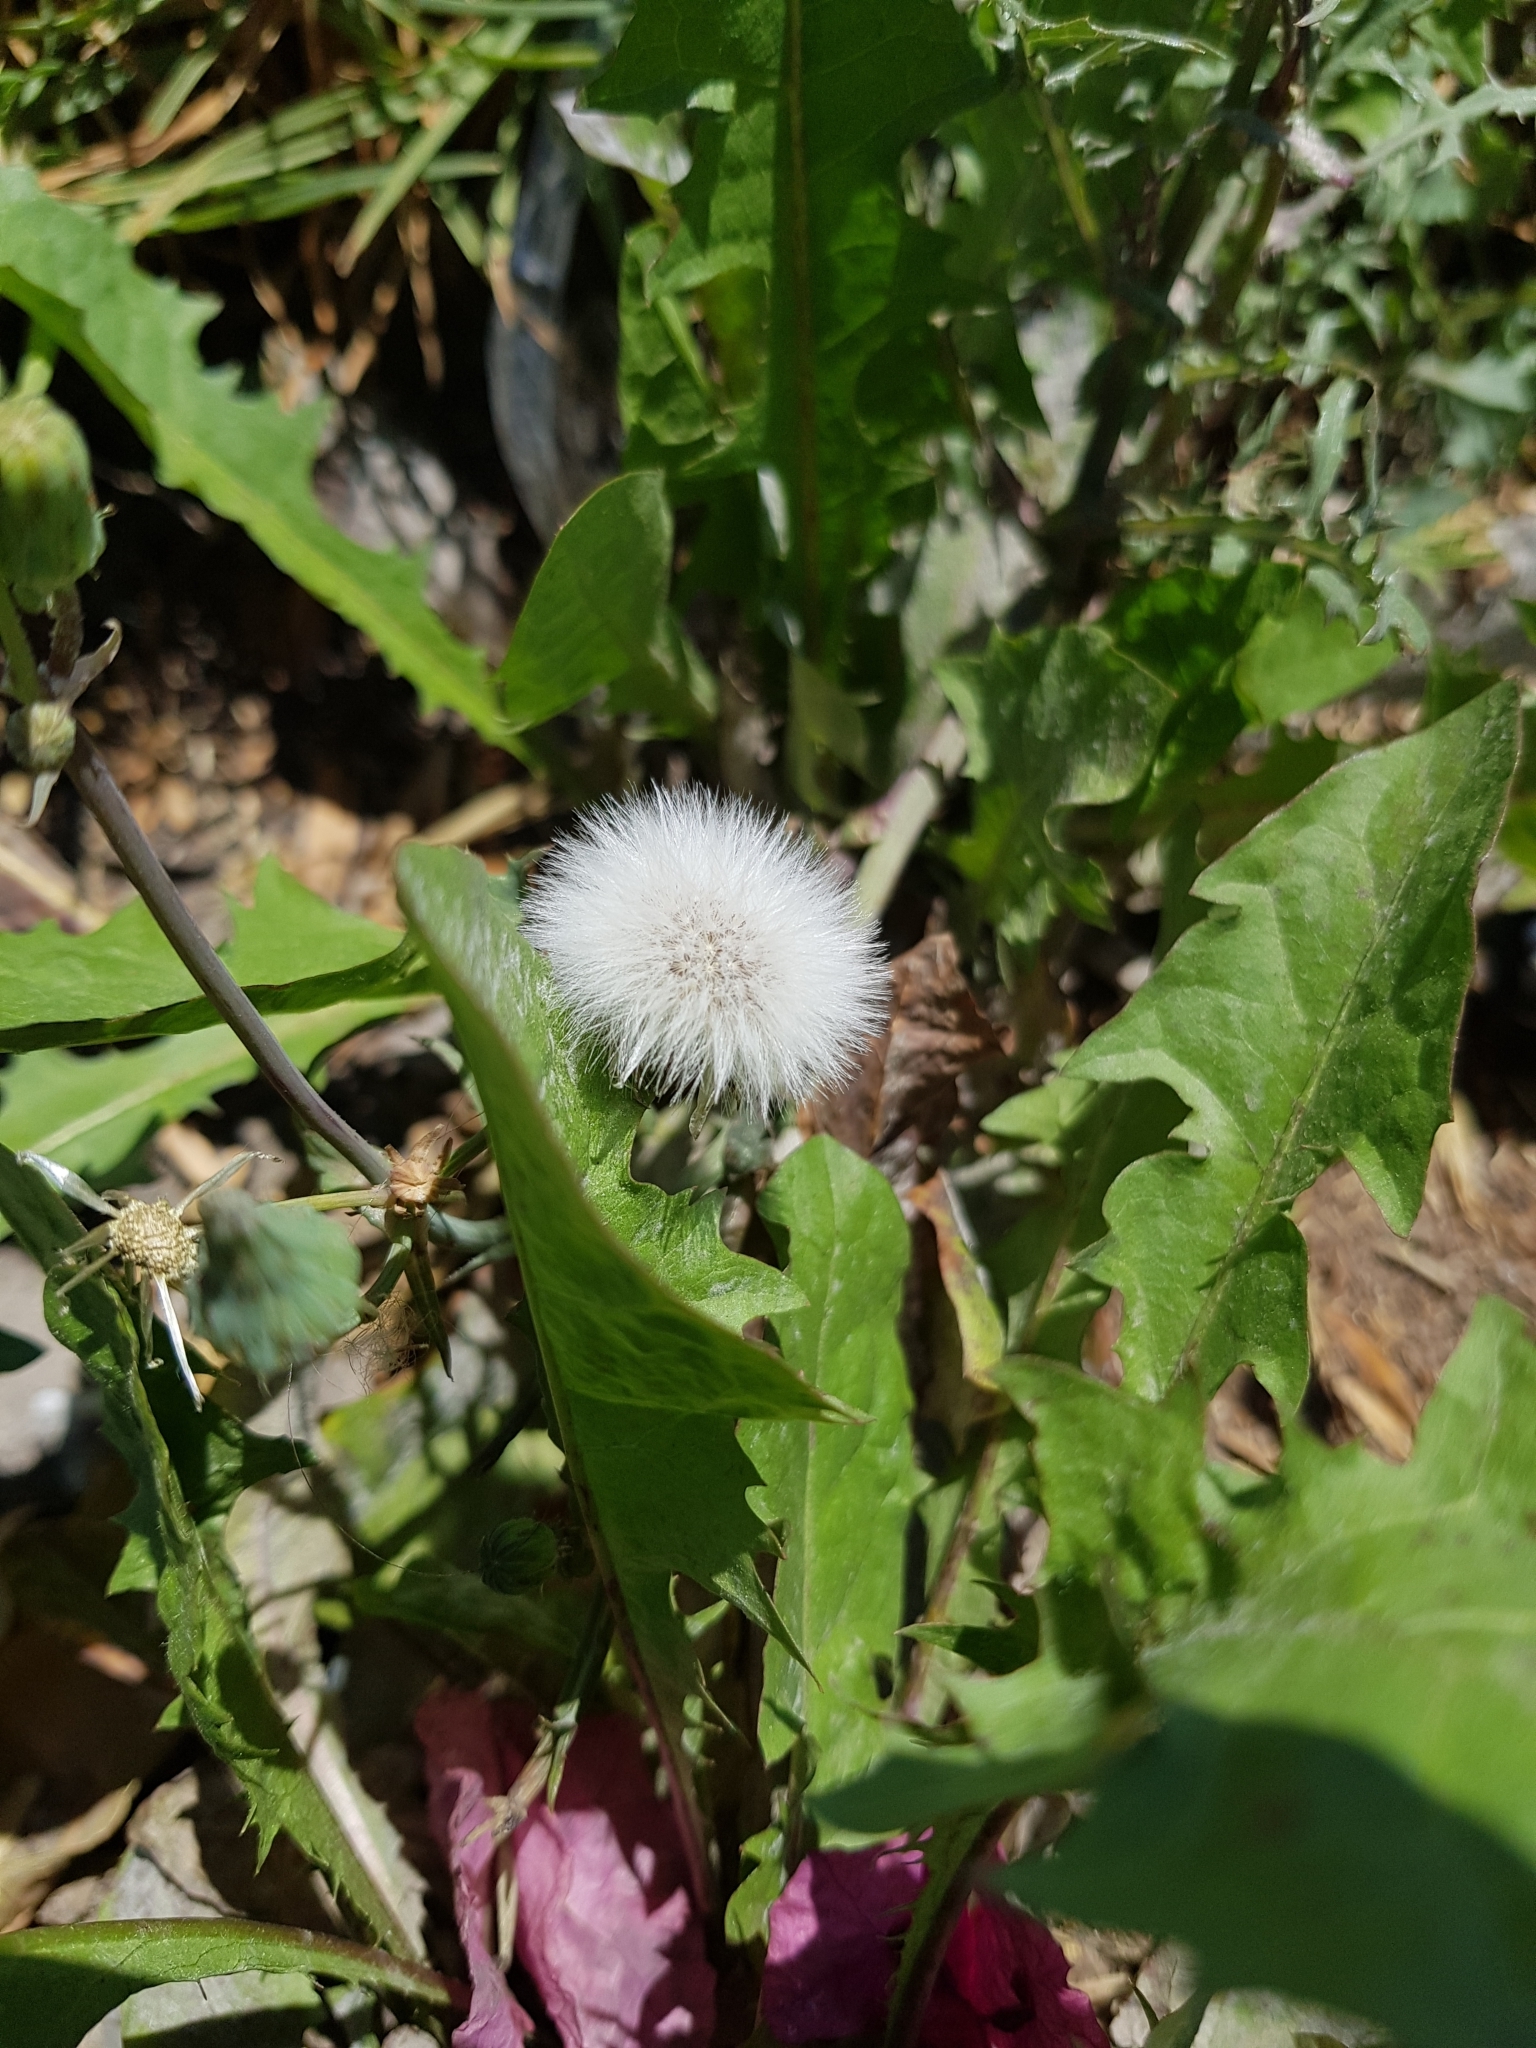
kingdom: Plantae
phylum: Tracheophyta
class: Magnoliopsida
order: Asterales
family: Asteraceae
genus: Taraxacum
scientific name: Taraxacum officinale
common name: Common dandelion
